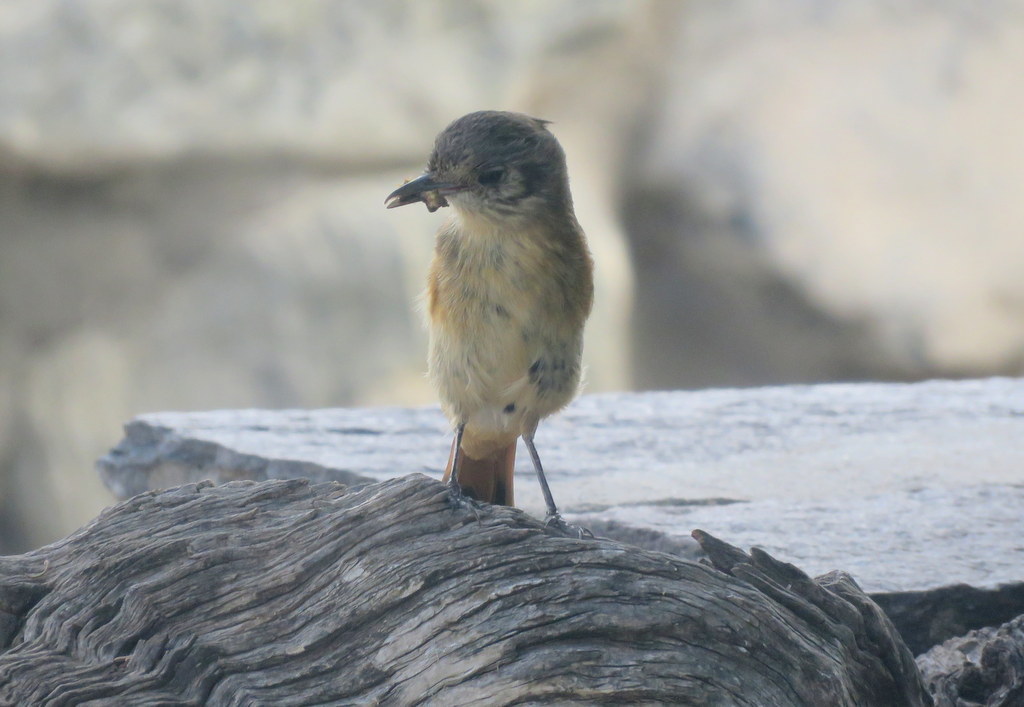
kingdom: Animalia
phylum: Chordata
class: Aves
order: Passeriformes
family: Tyrannidae
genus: Knipolegus
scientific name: Knipolegus aterrimus
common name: White-winged black tyrant
